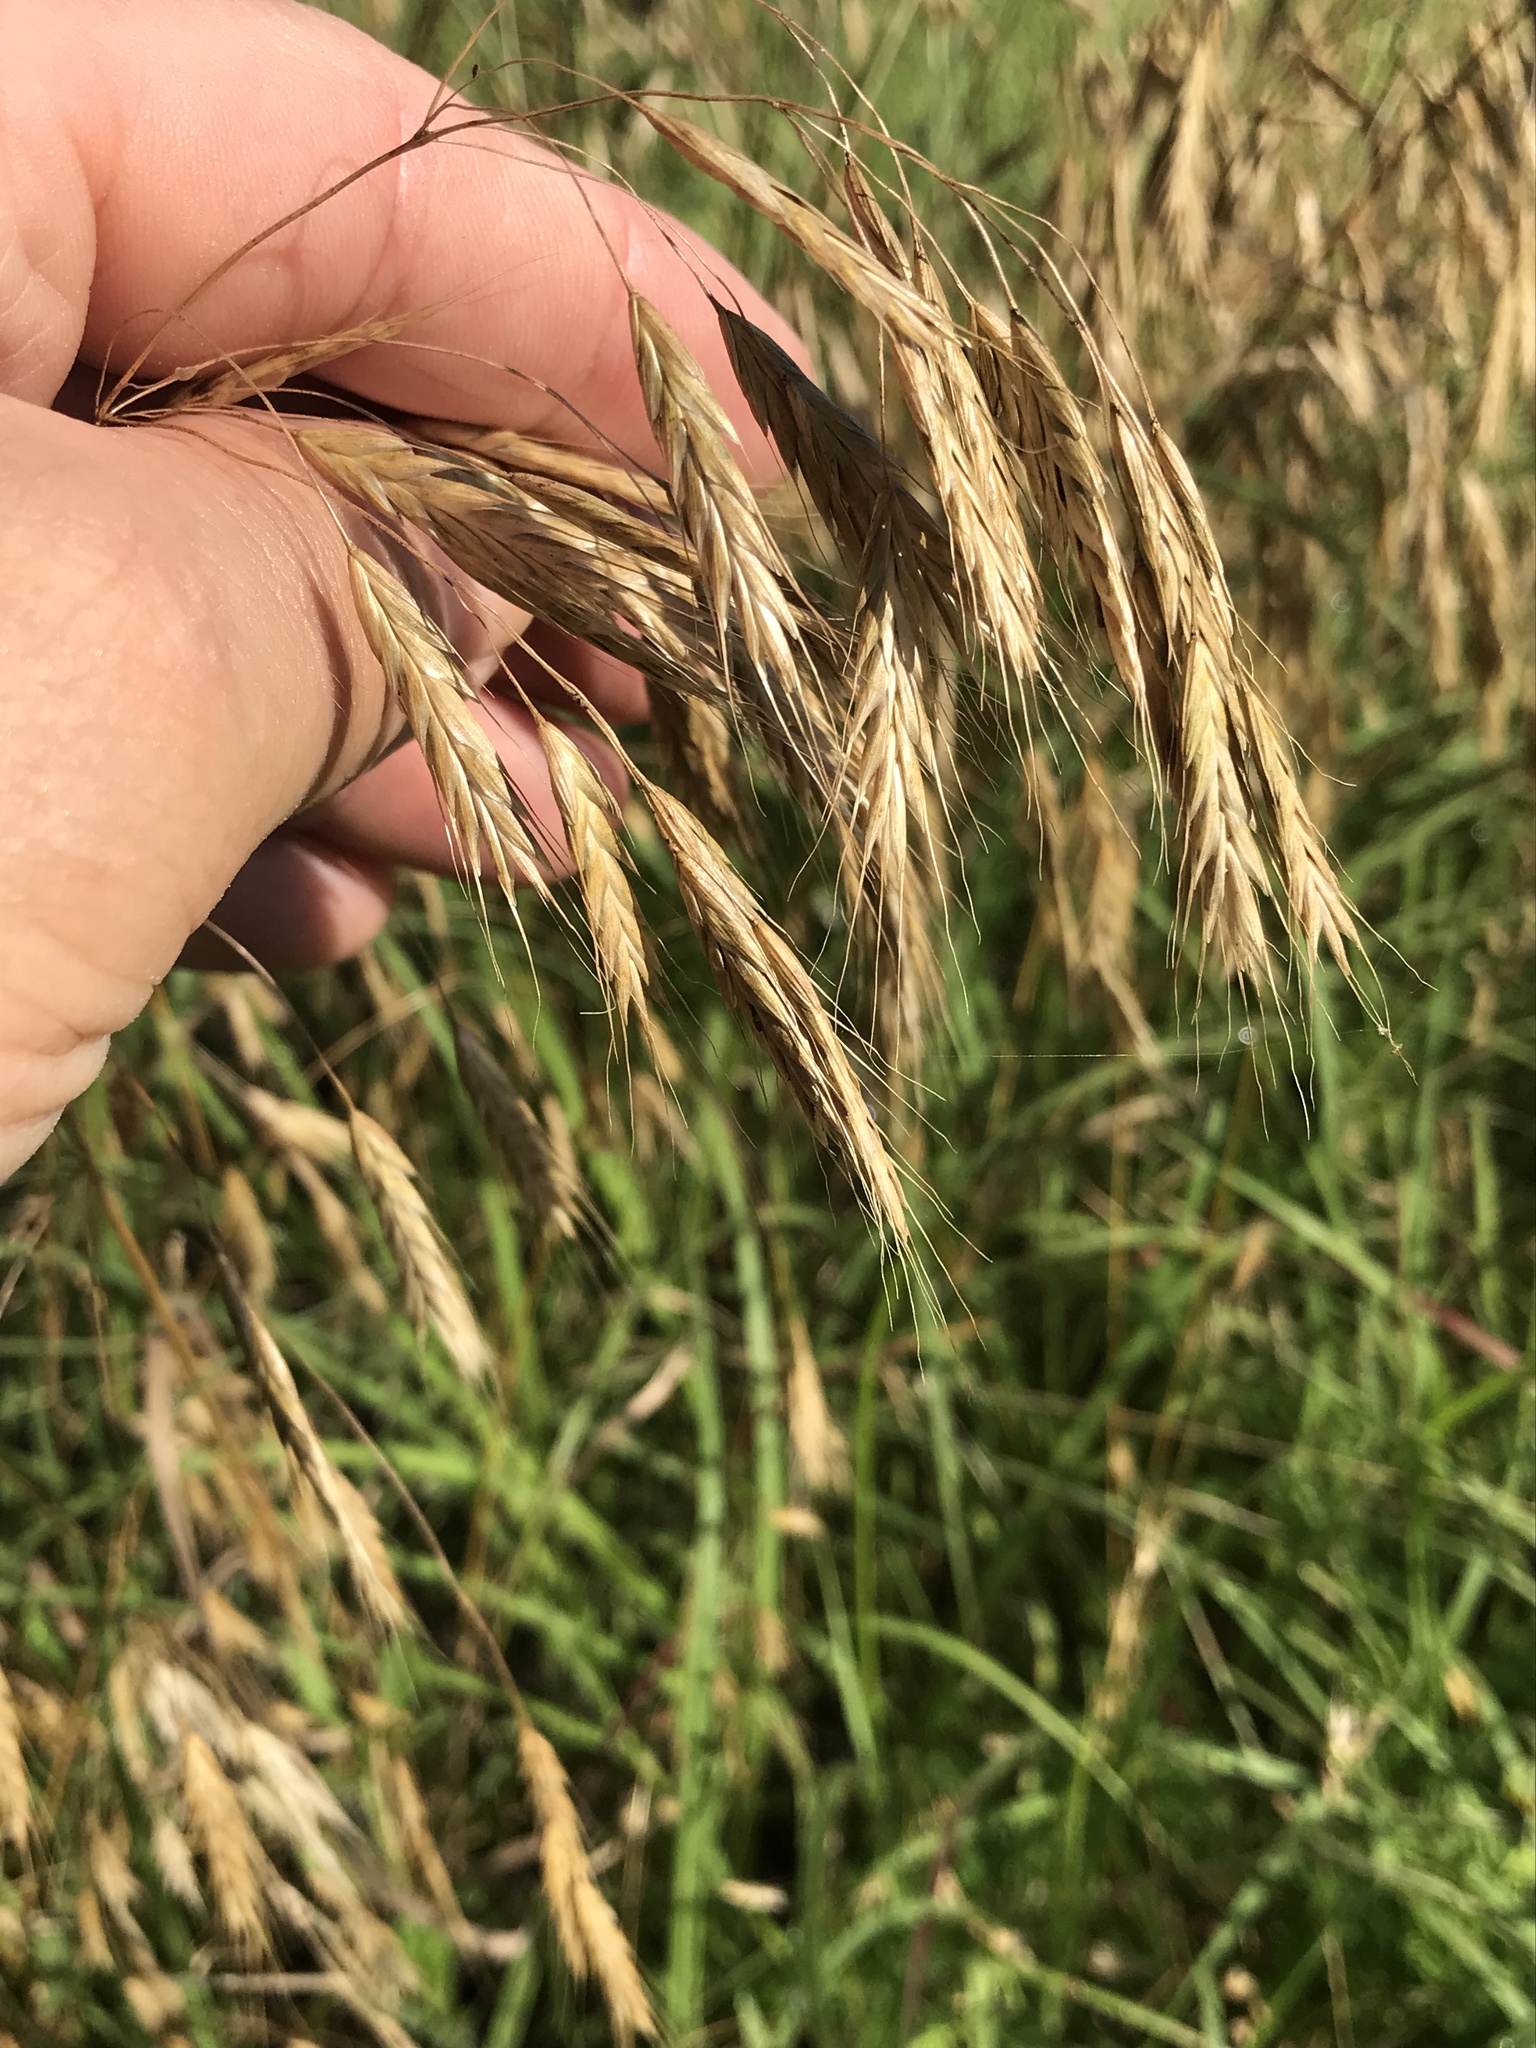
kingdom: Plantae
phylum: Tracheophyta
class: Liliopsida
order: Poales
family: Poaceae
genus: Bromus
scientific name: Bromus japonicus
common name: Japanese brome
